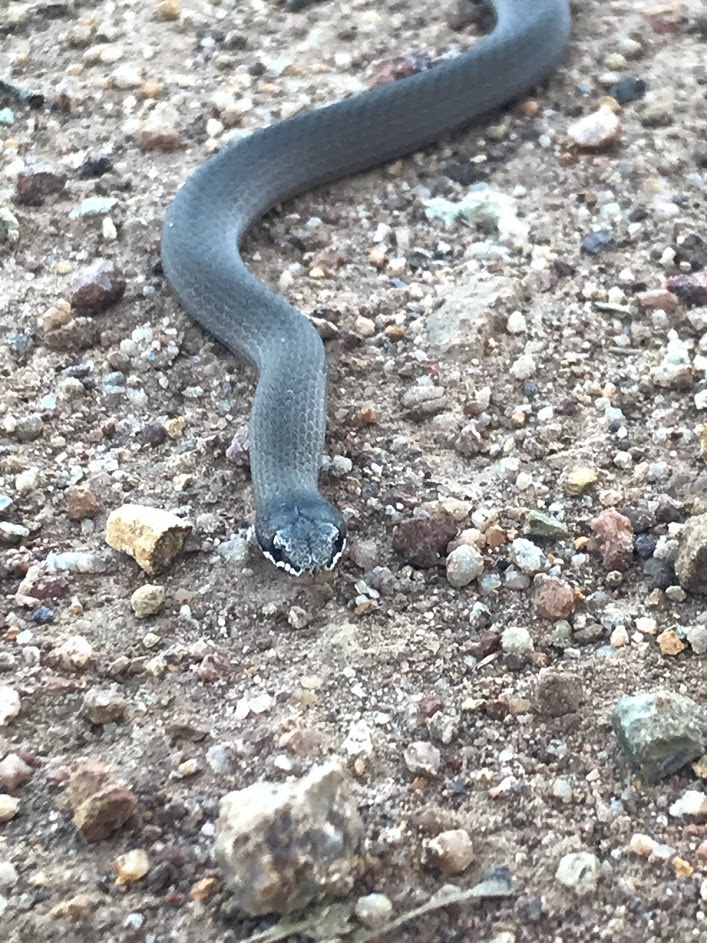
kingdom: Animalia
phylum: Chordata
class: Squamata
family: Elapidae
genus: Drysdalia
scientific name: Drysdalia coronoides
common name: White-lipped snake
